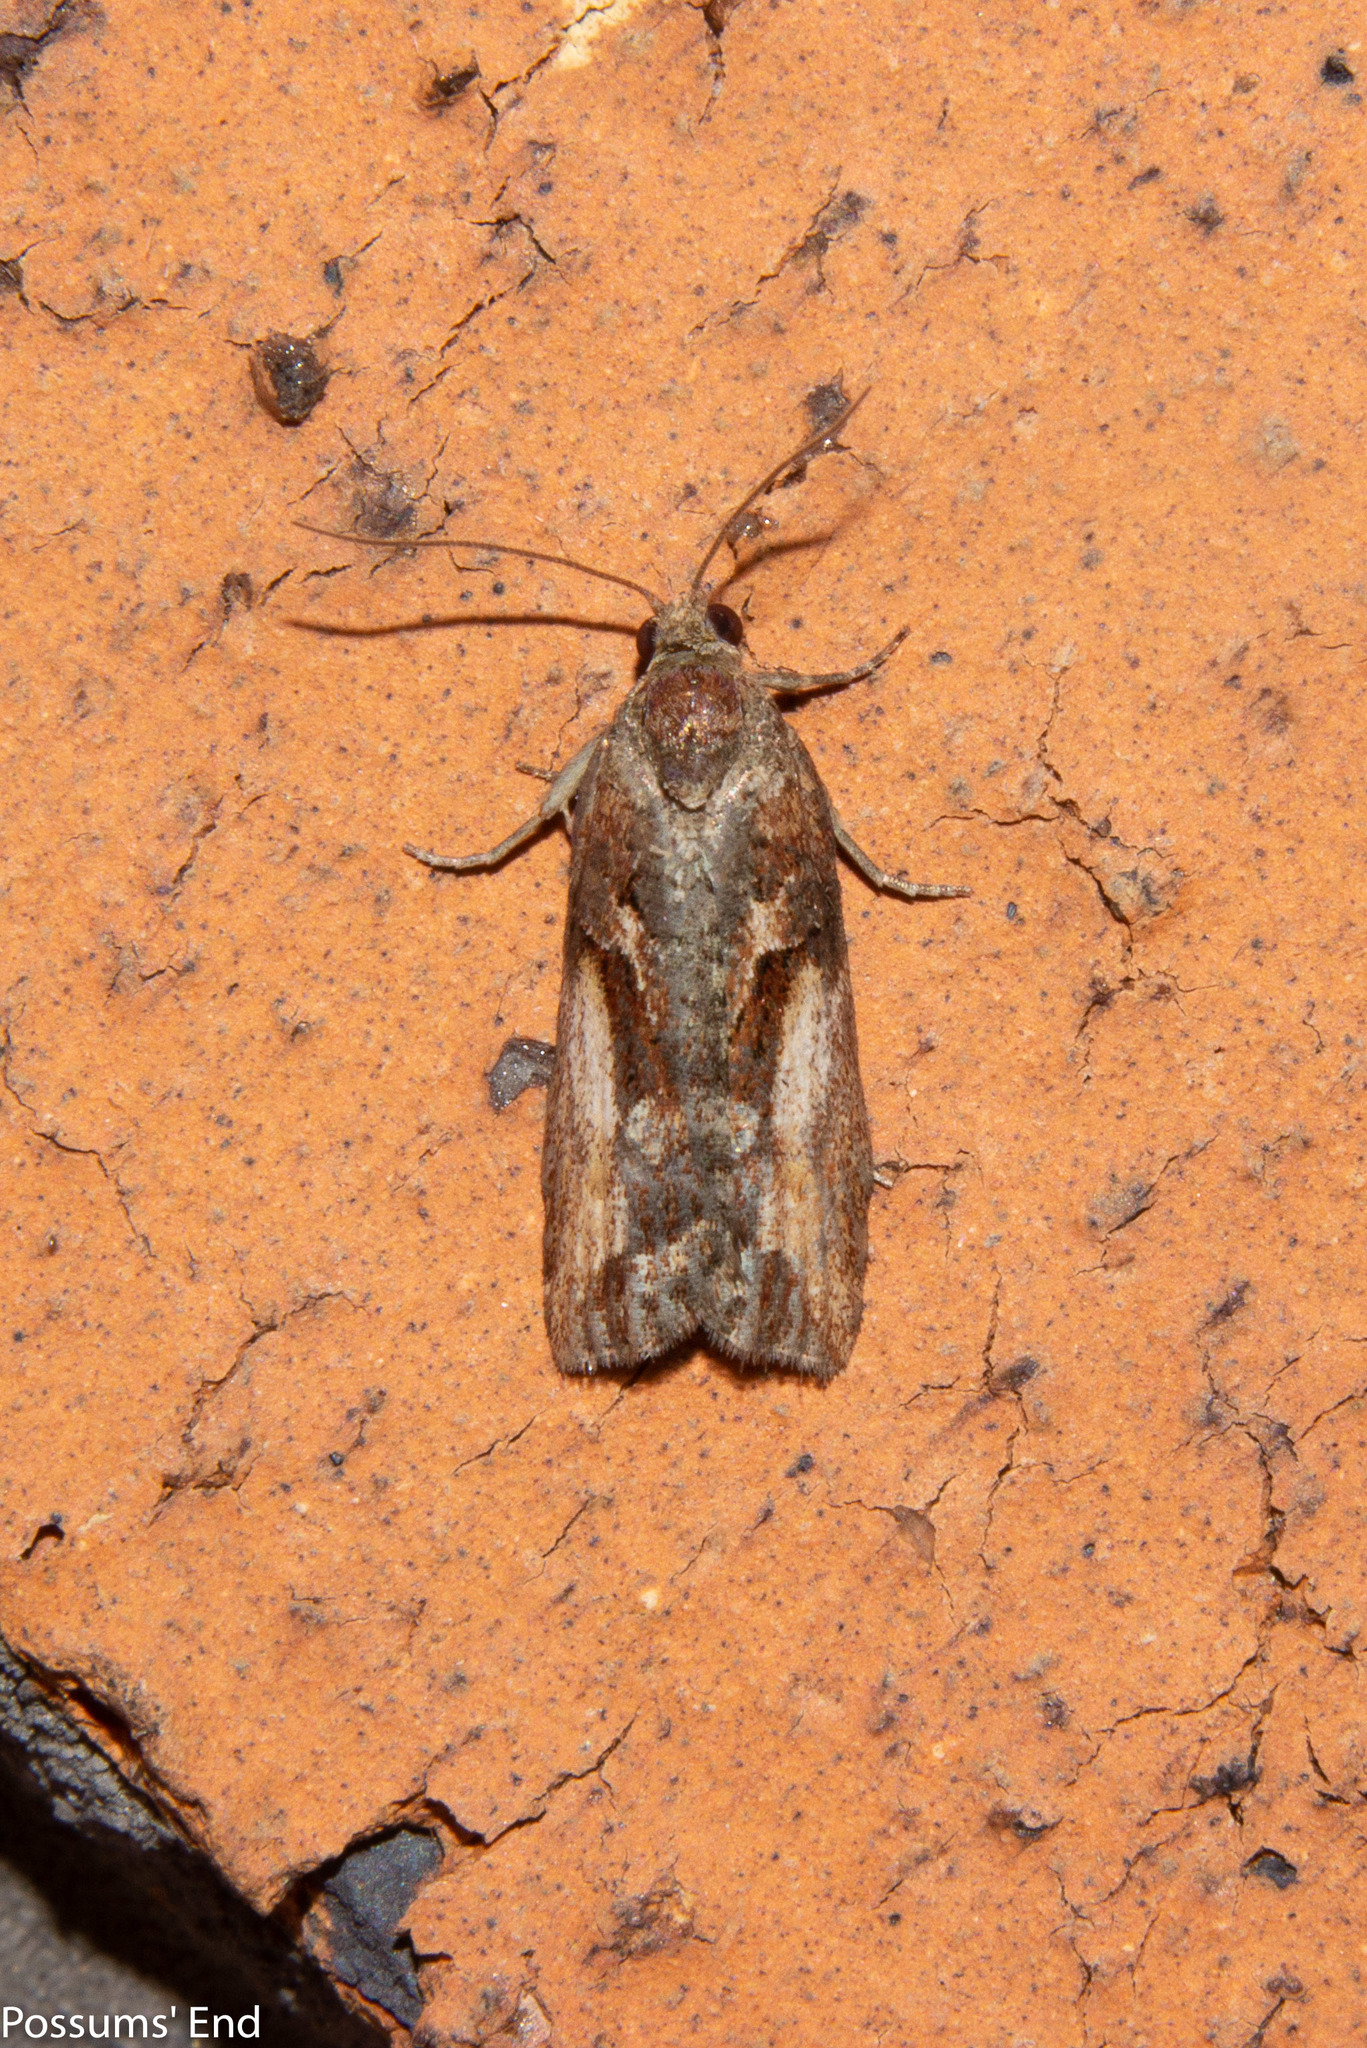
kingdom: Animalia
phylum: Arthropoda
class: Insecta
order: Lepidoptera
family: Tortricidae
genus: Harmologa
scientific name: Harmologa scoliastis
